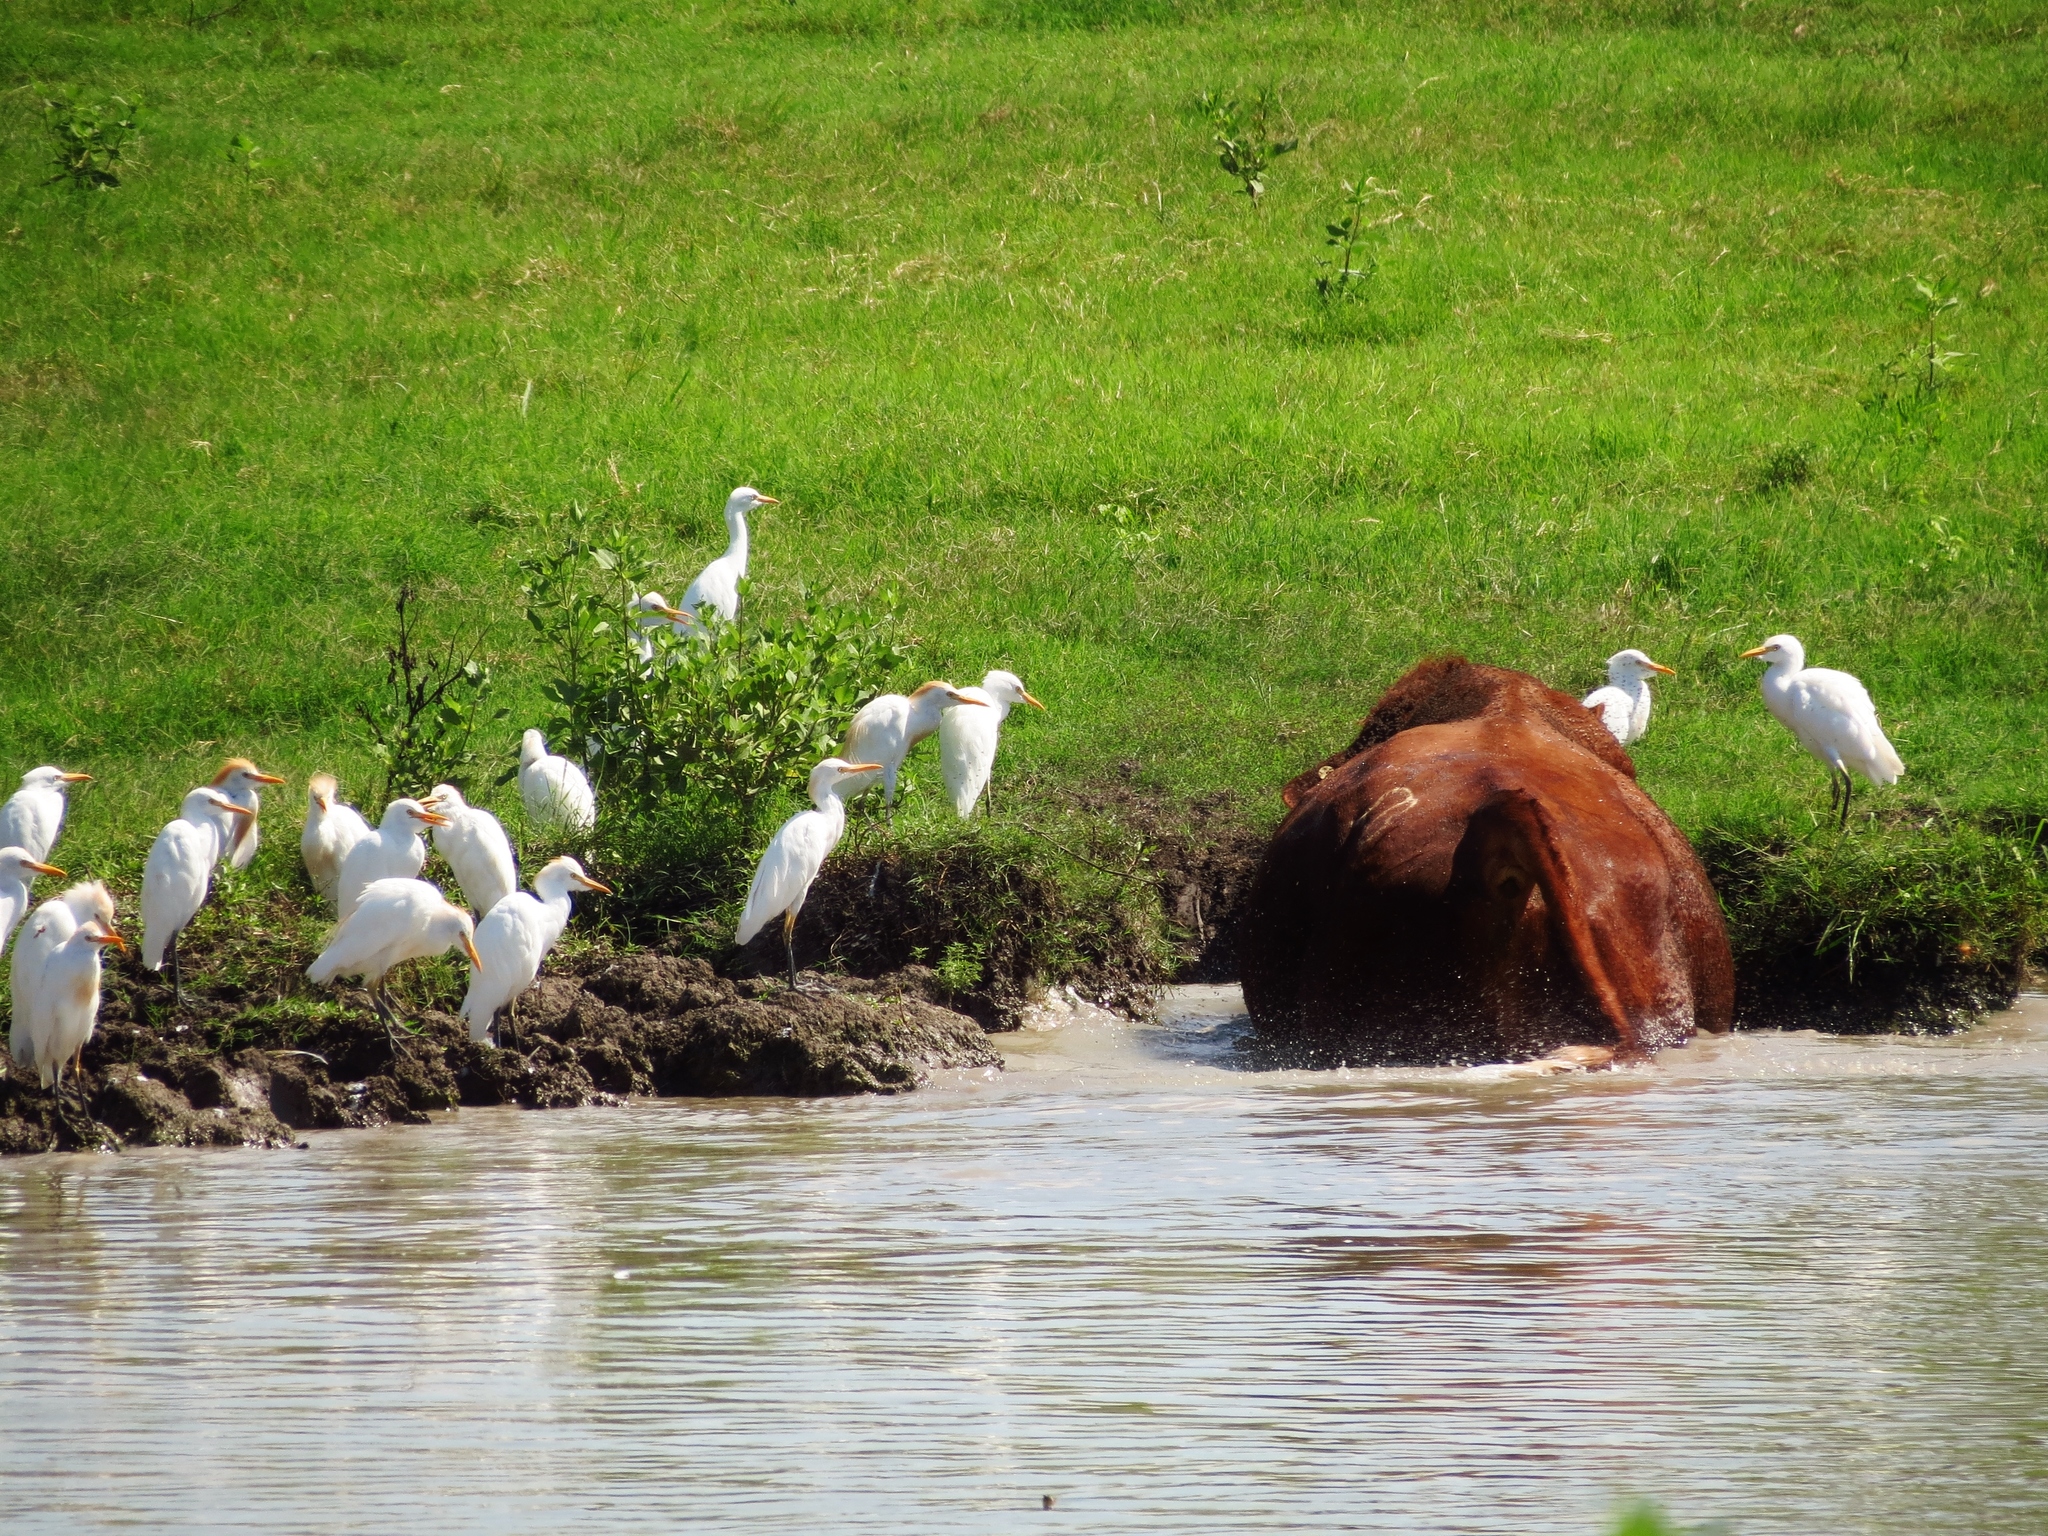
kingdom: Animalia
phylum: Chordata
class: Aves
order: Pelecaniformes
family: Ardeidae
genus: Bubulcus
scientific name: Bubulcus ibis
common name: Cattle egret
